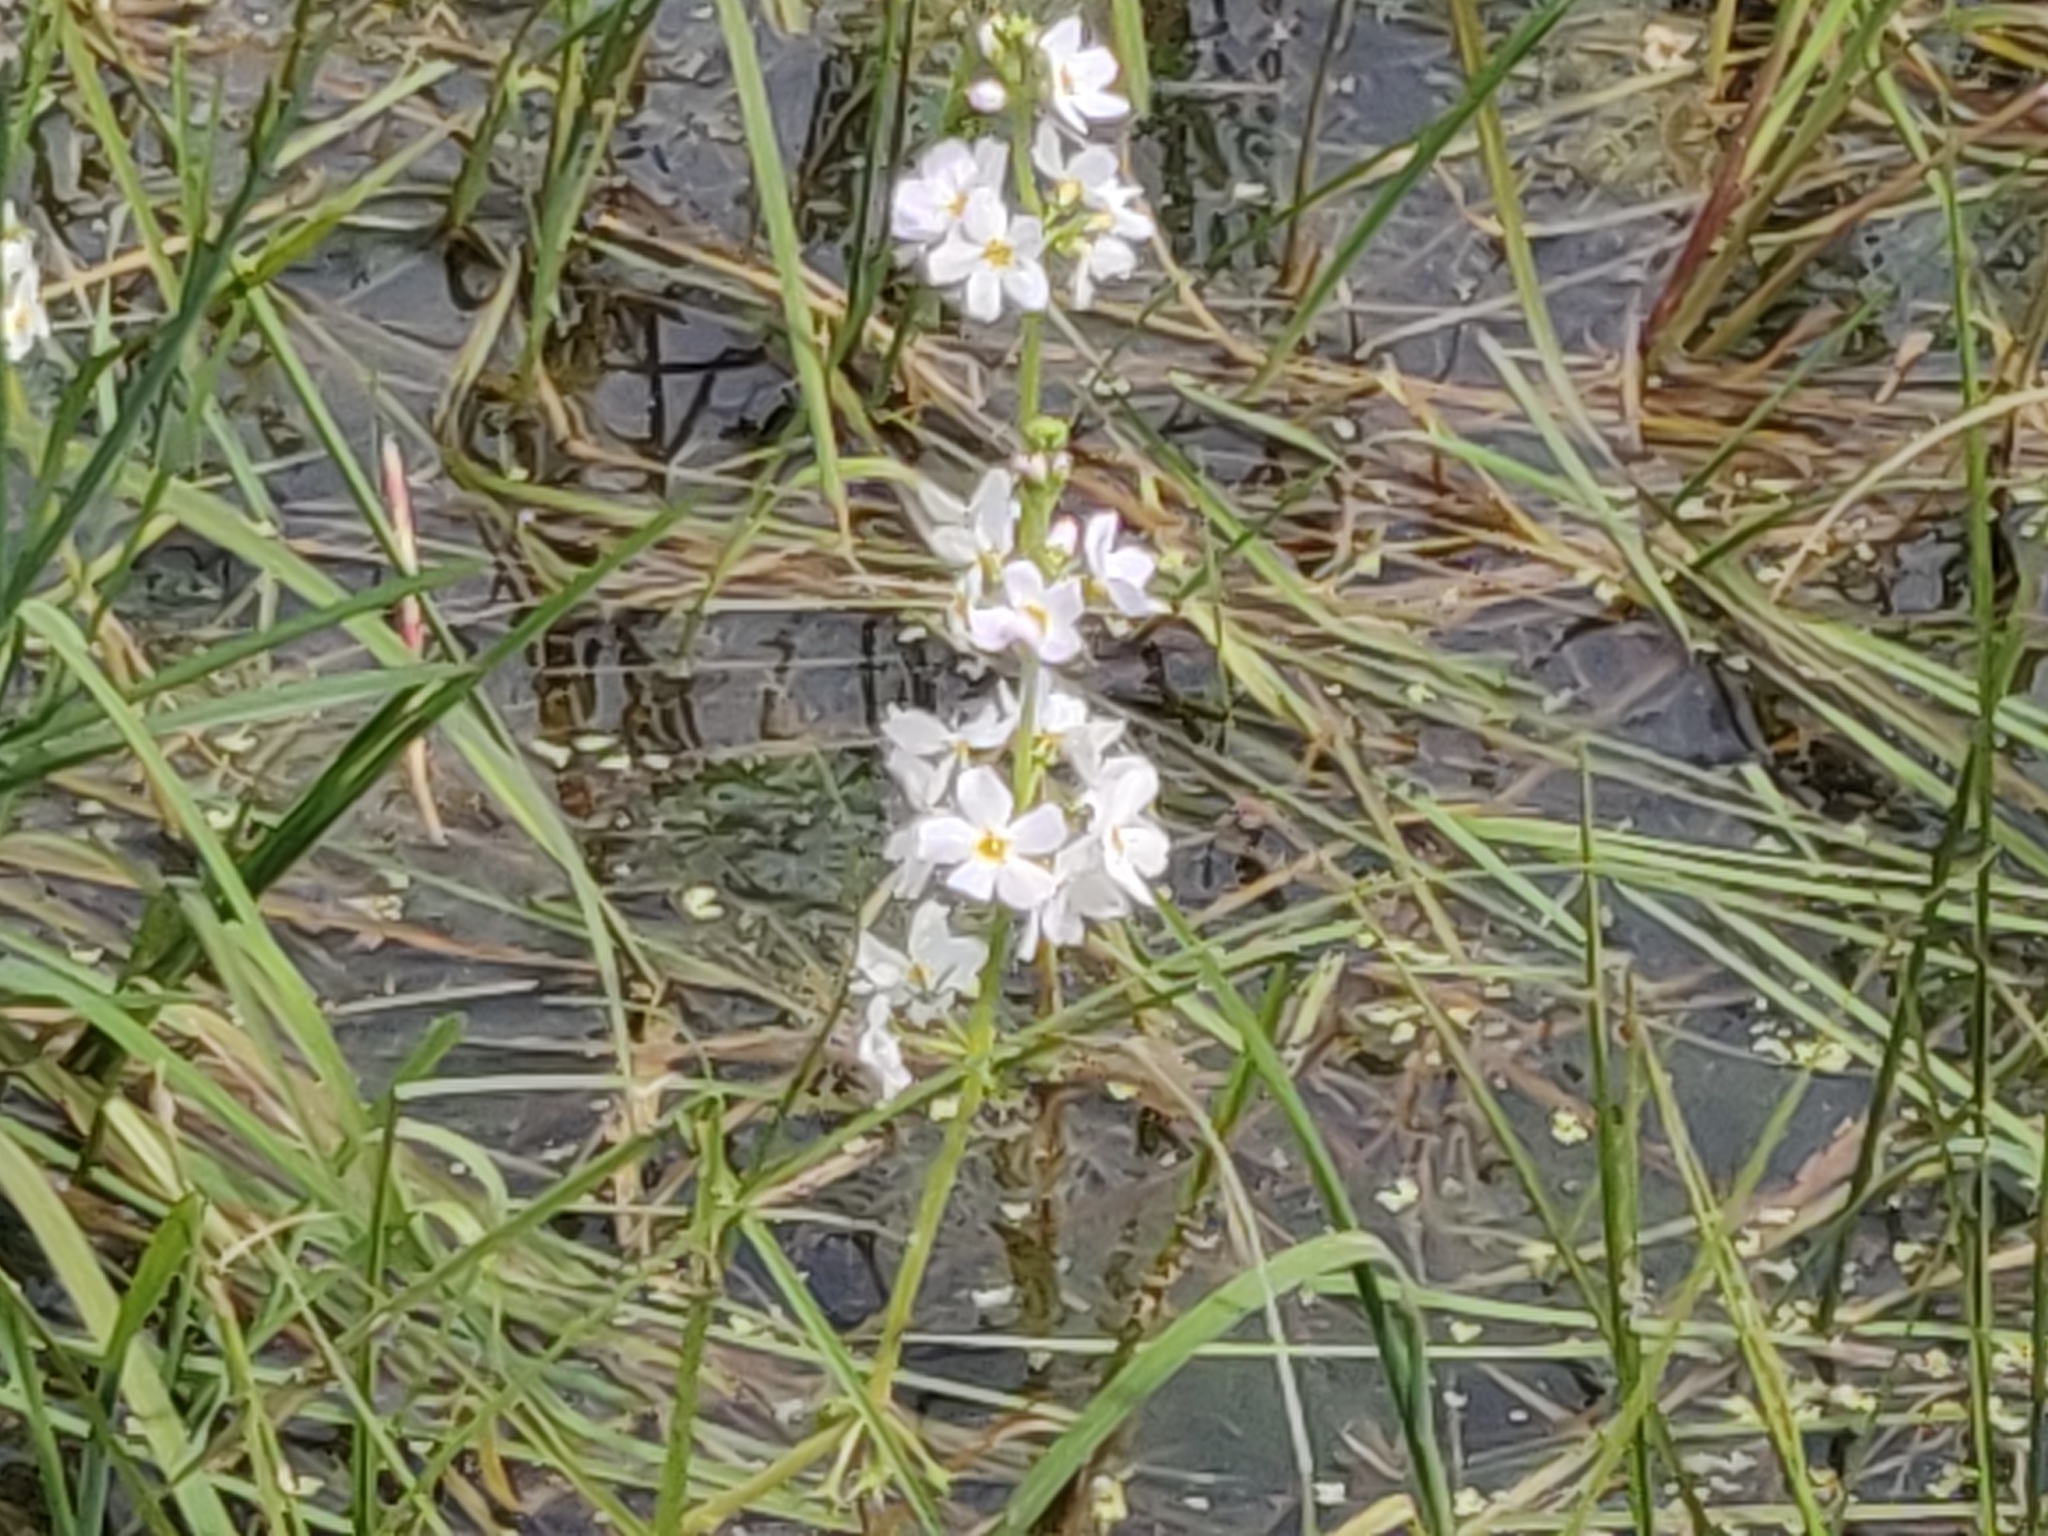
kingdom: Plantae
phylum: Tracheophyta
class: Magnoliopsida
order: Ericales
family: Primulaceae
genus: Hottonia
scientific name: Hottonia palustris
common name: Water-violet
